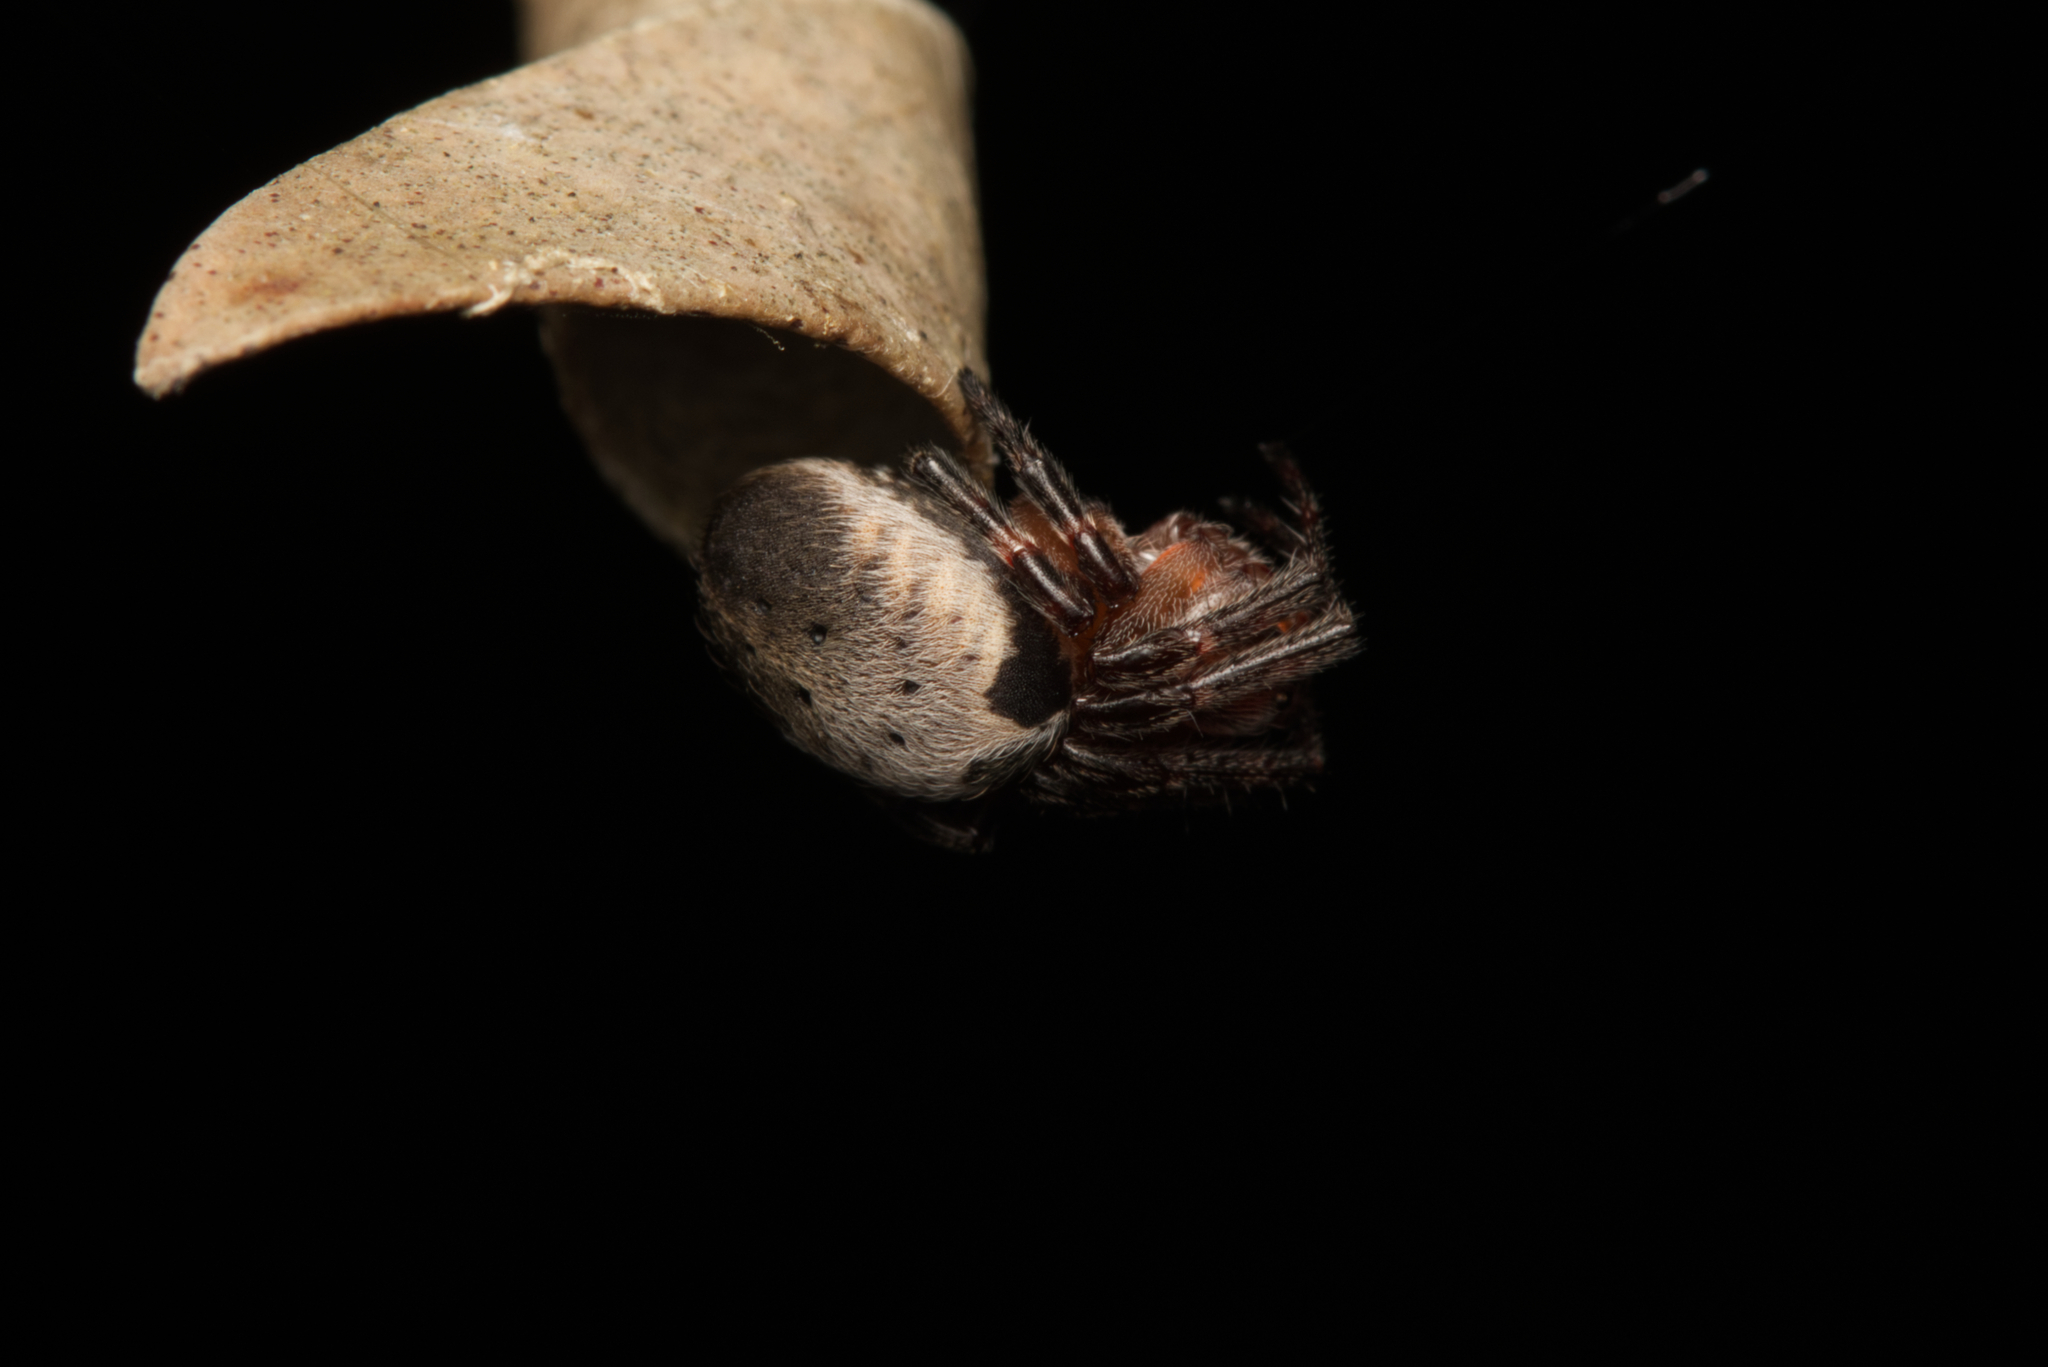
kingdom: Animalia
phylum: Arthropoda
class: Arachnida
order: Araneae
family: Araneidae
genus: Araneus
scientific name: Araneus dimidiatus
